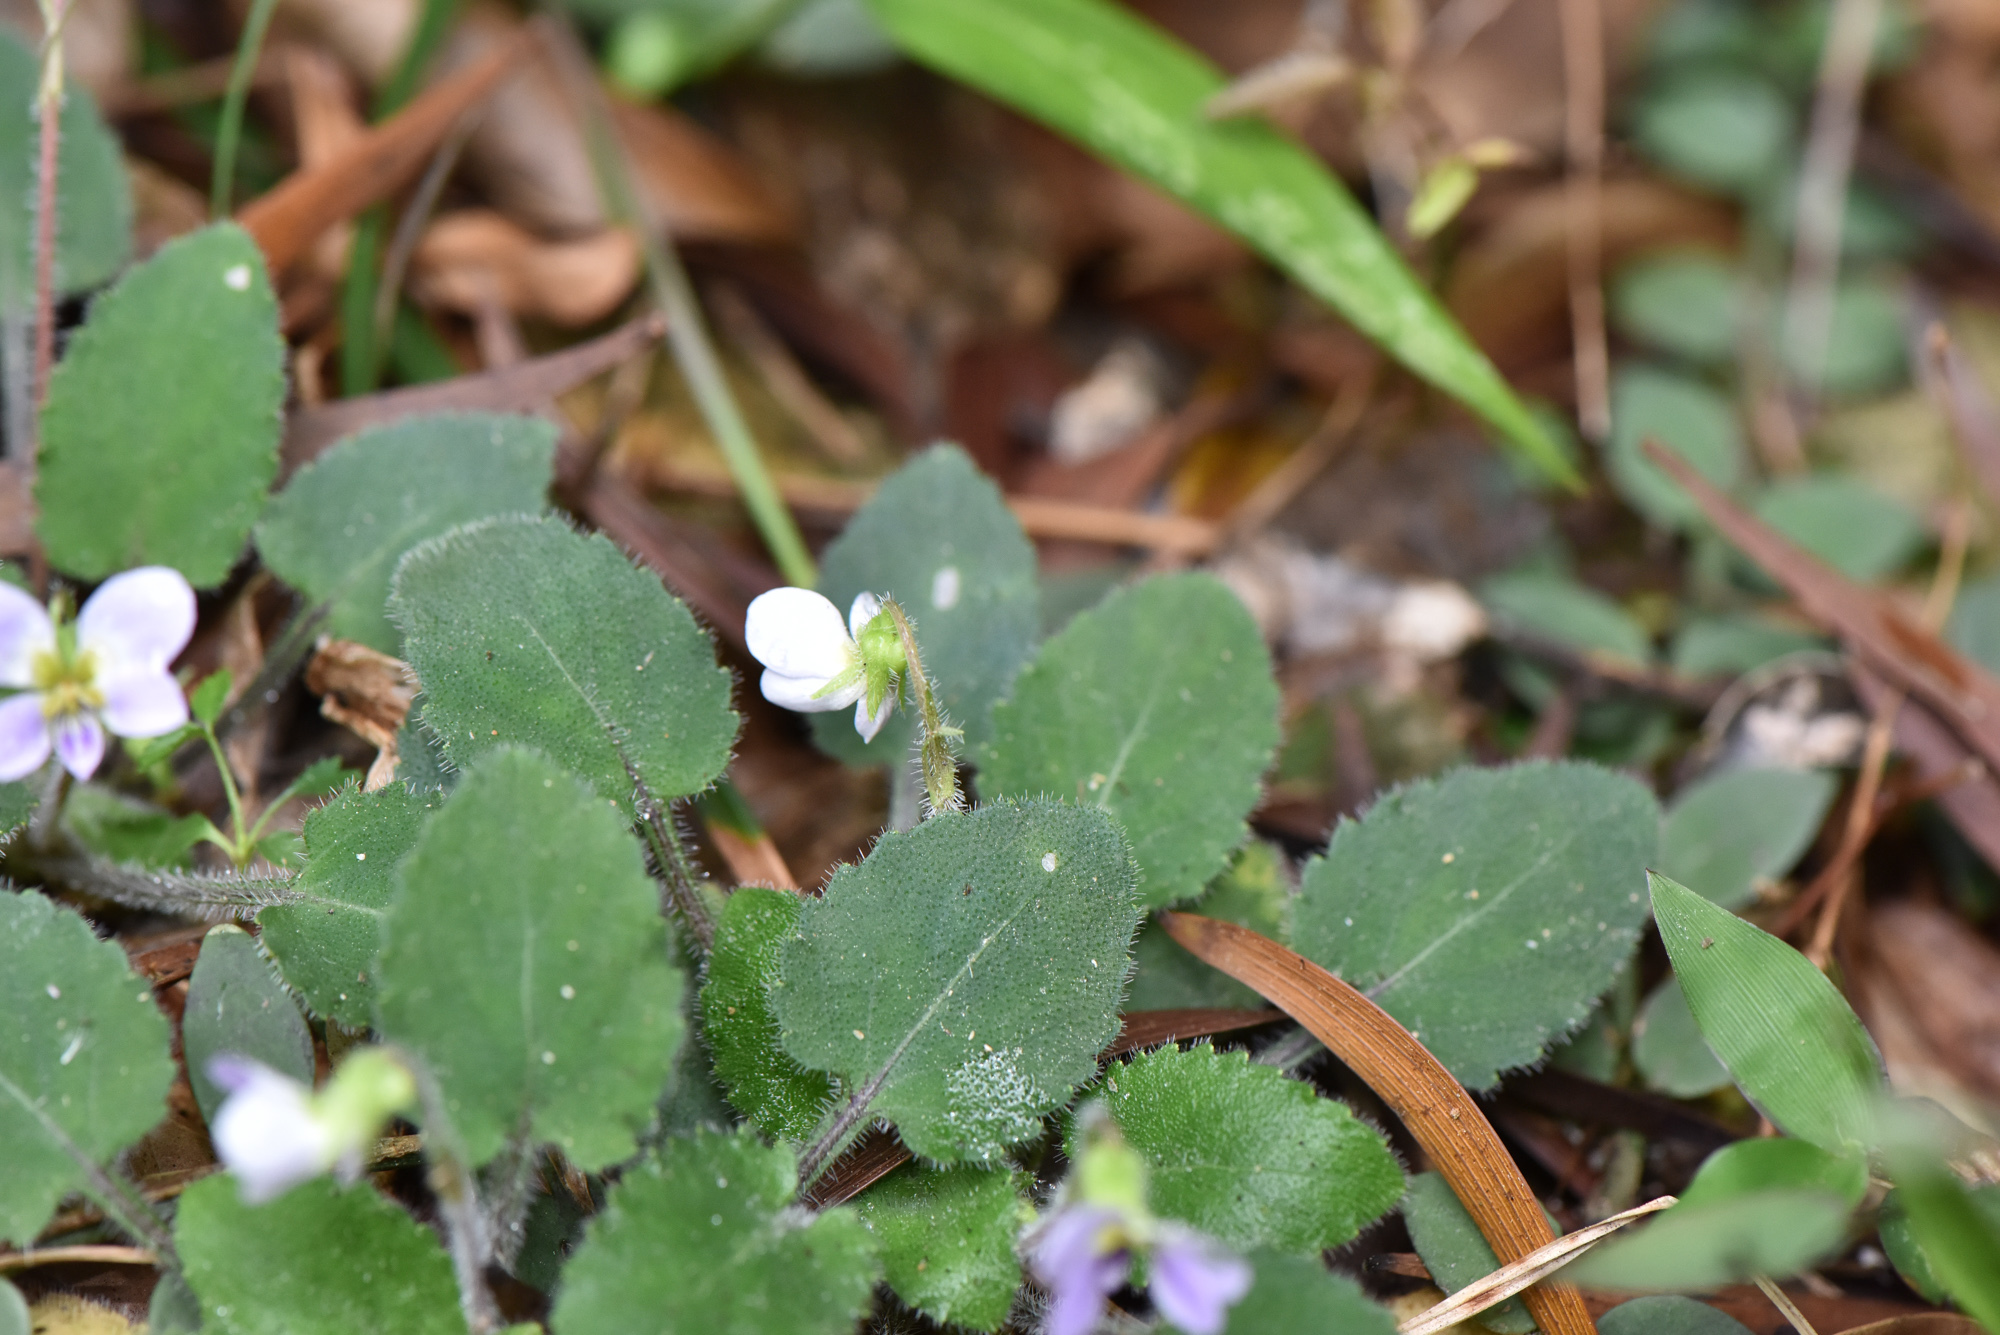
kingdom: Plantae
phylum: Tracheophyta
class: Magnoliopsida
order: Malpighiales
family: Violaceae
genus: Viola
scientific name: Viola diffusa
